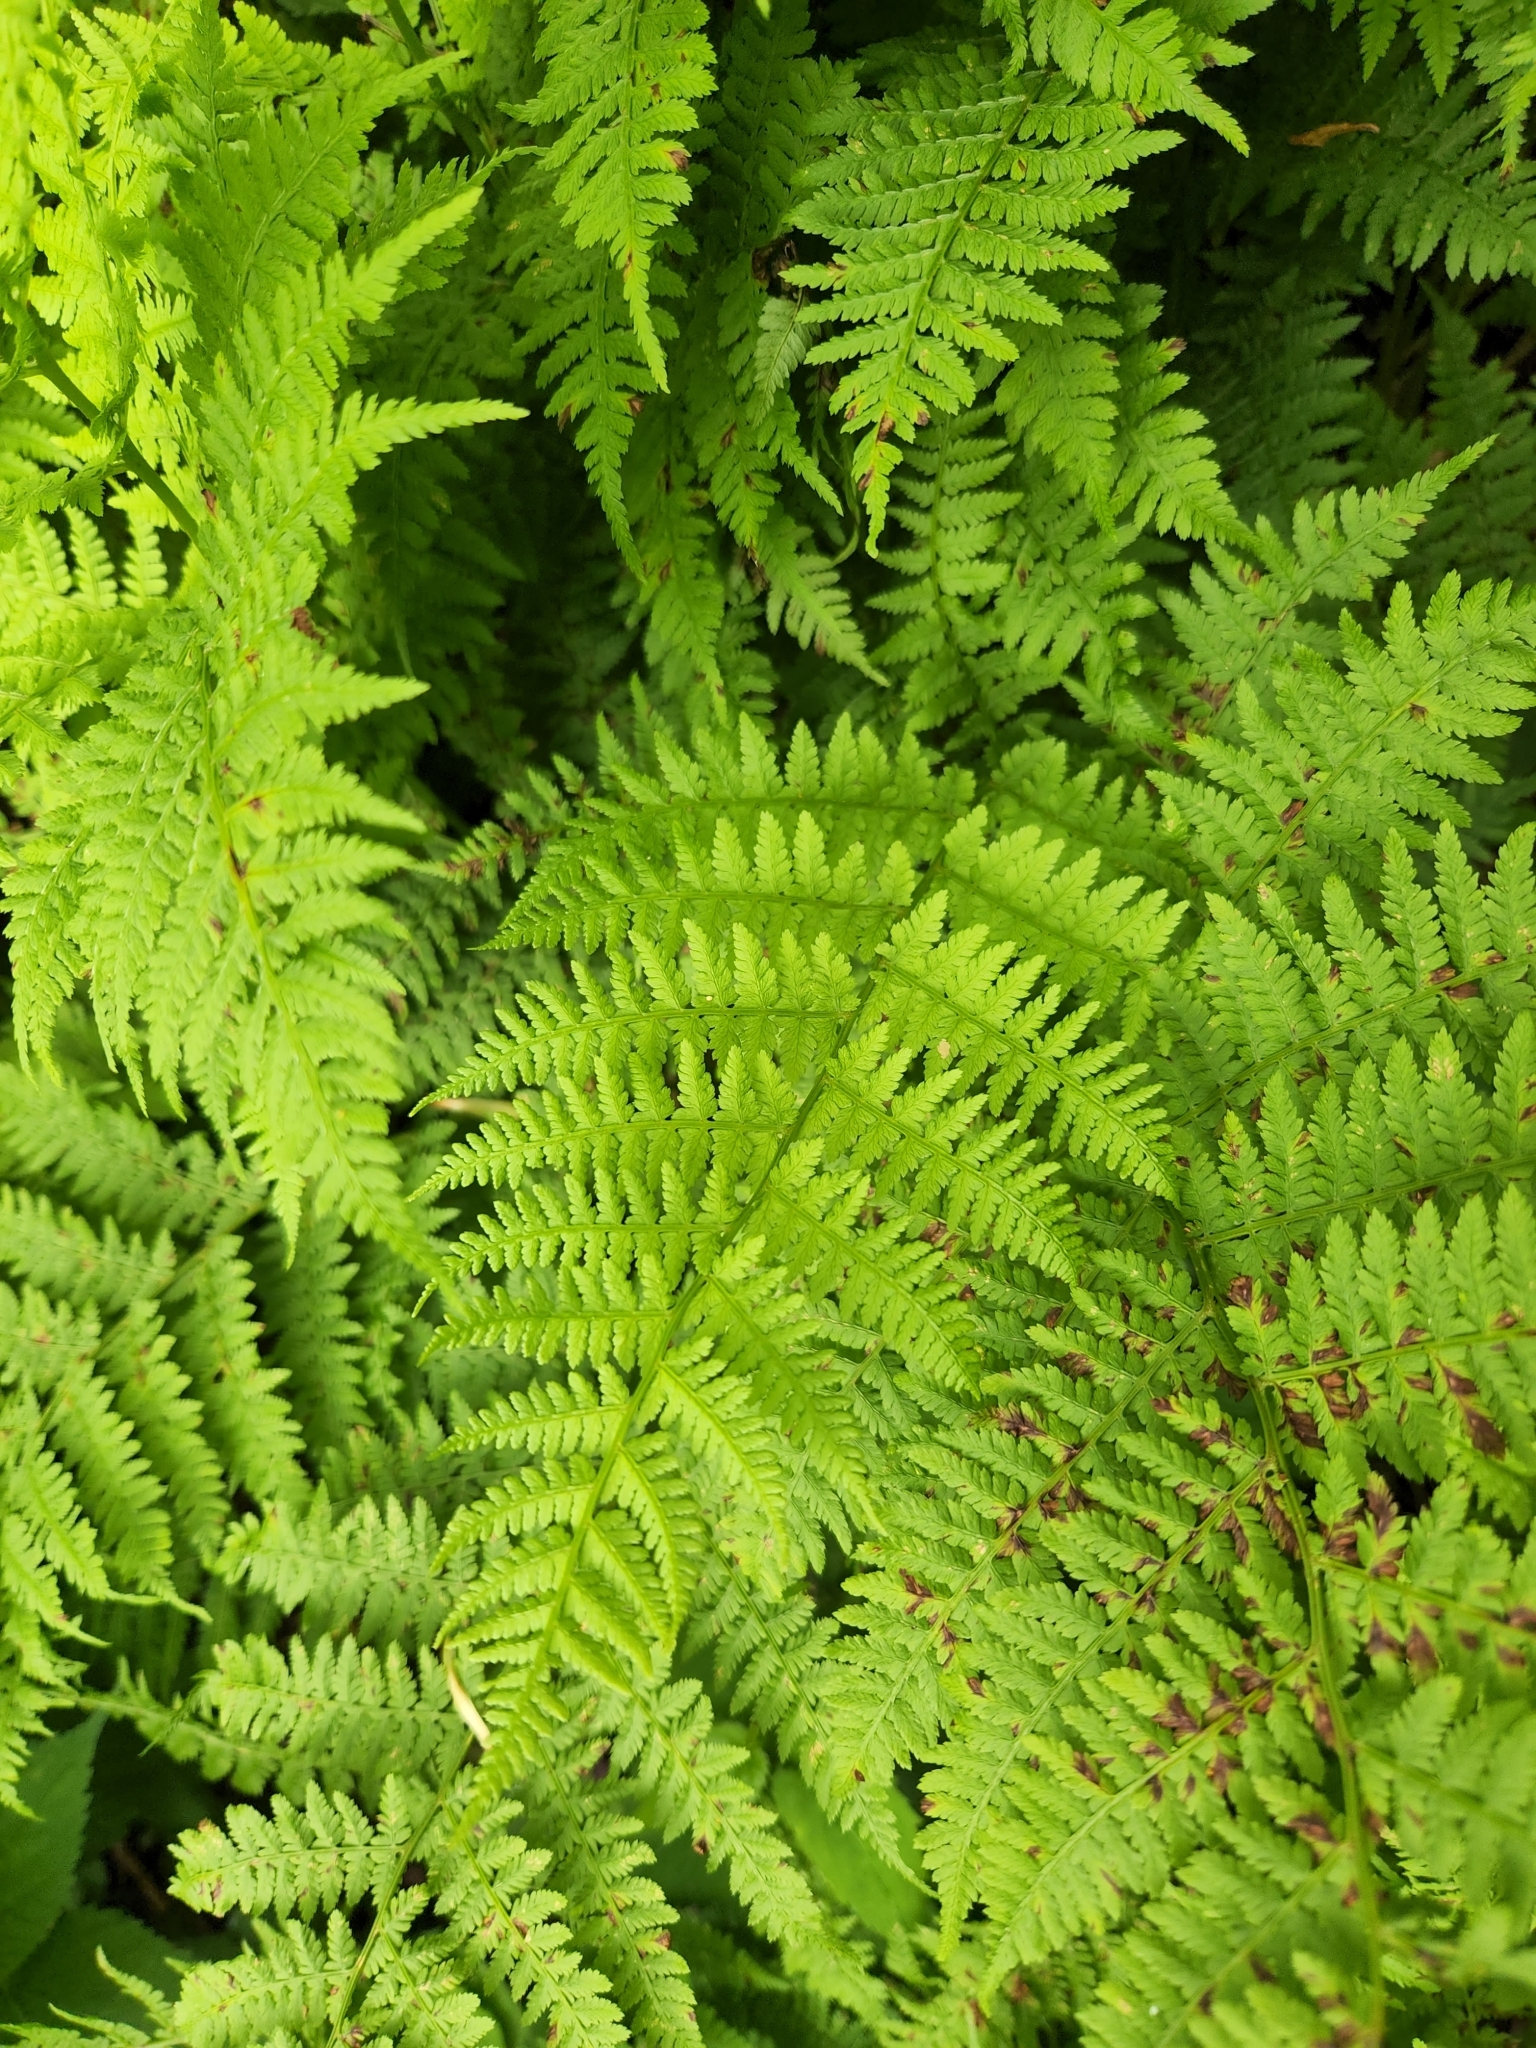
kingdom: Plantae
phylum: Tracheophyta
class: Polypodiopsida
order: Polypodiales
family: Athyriaceae
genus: Athyrium
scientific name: Athyrium asplenioides
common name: Southern lady fern
